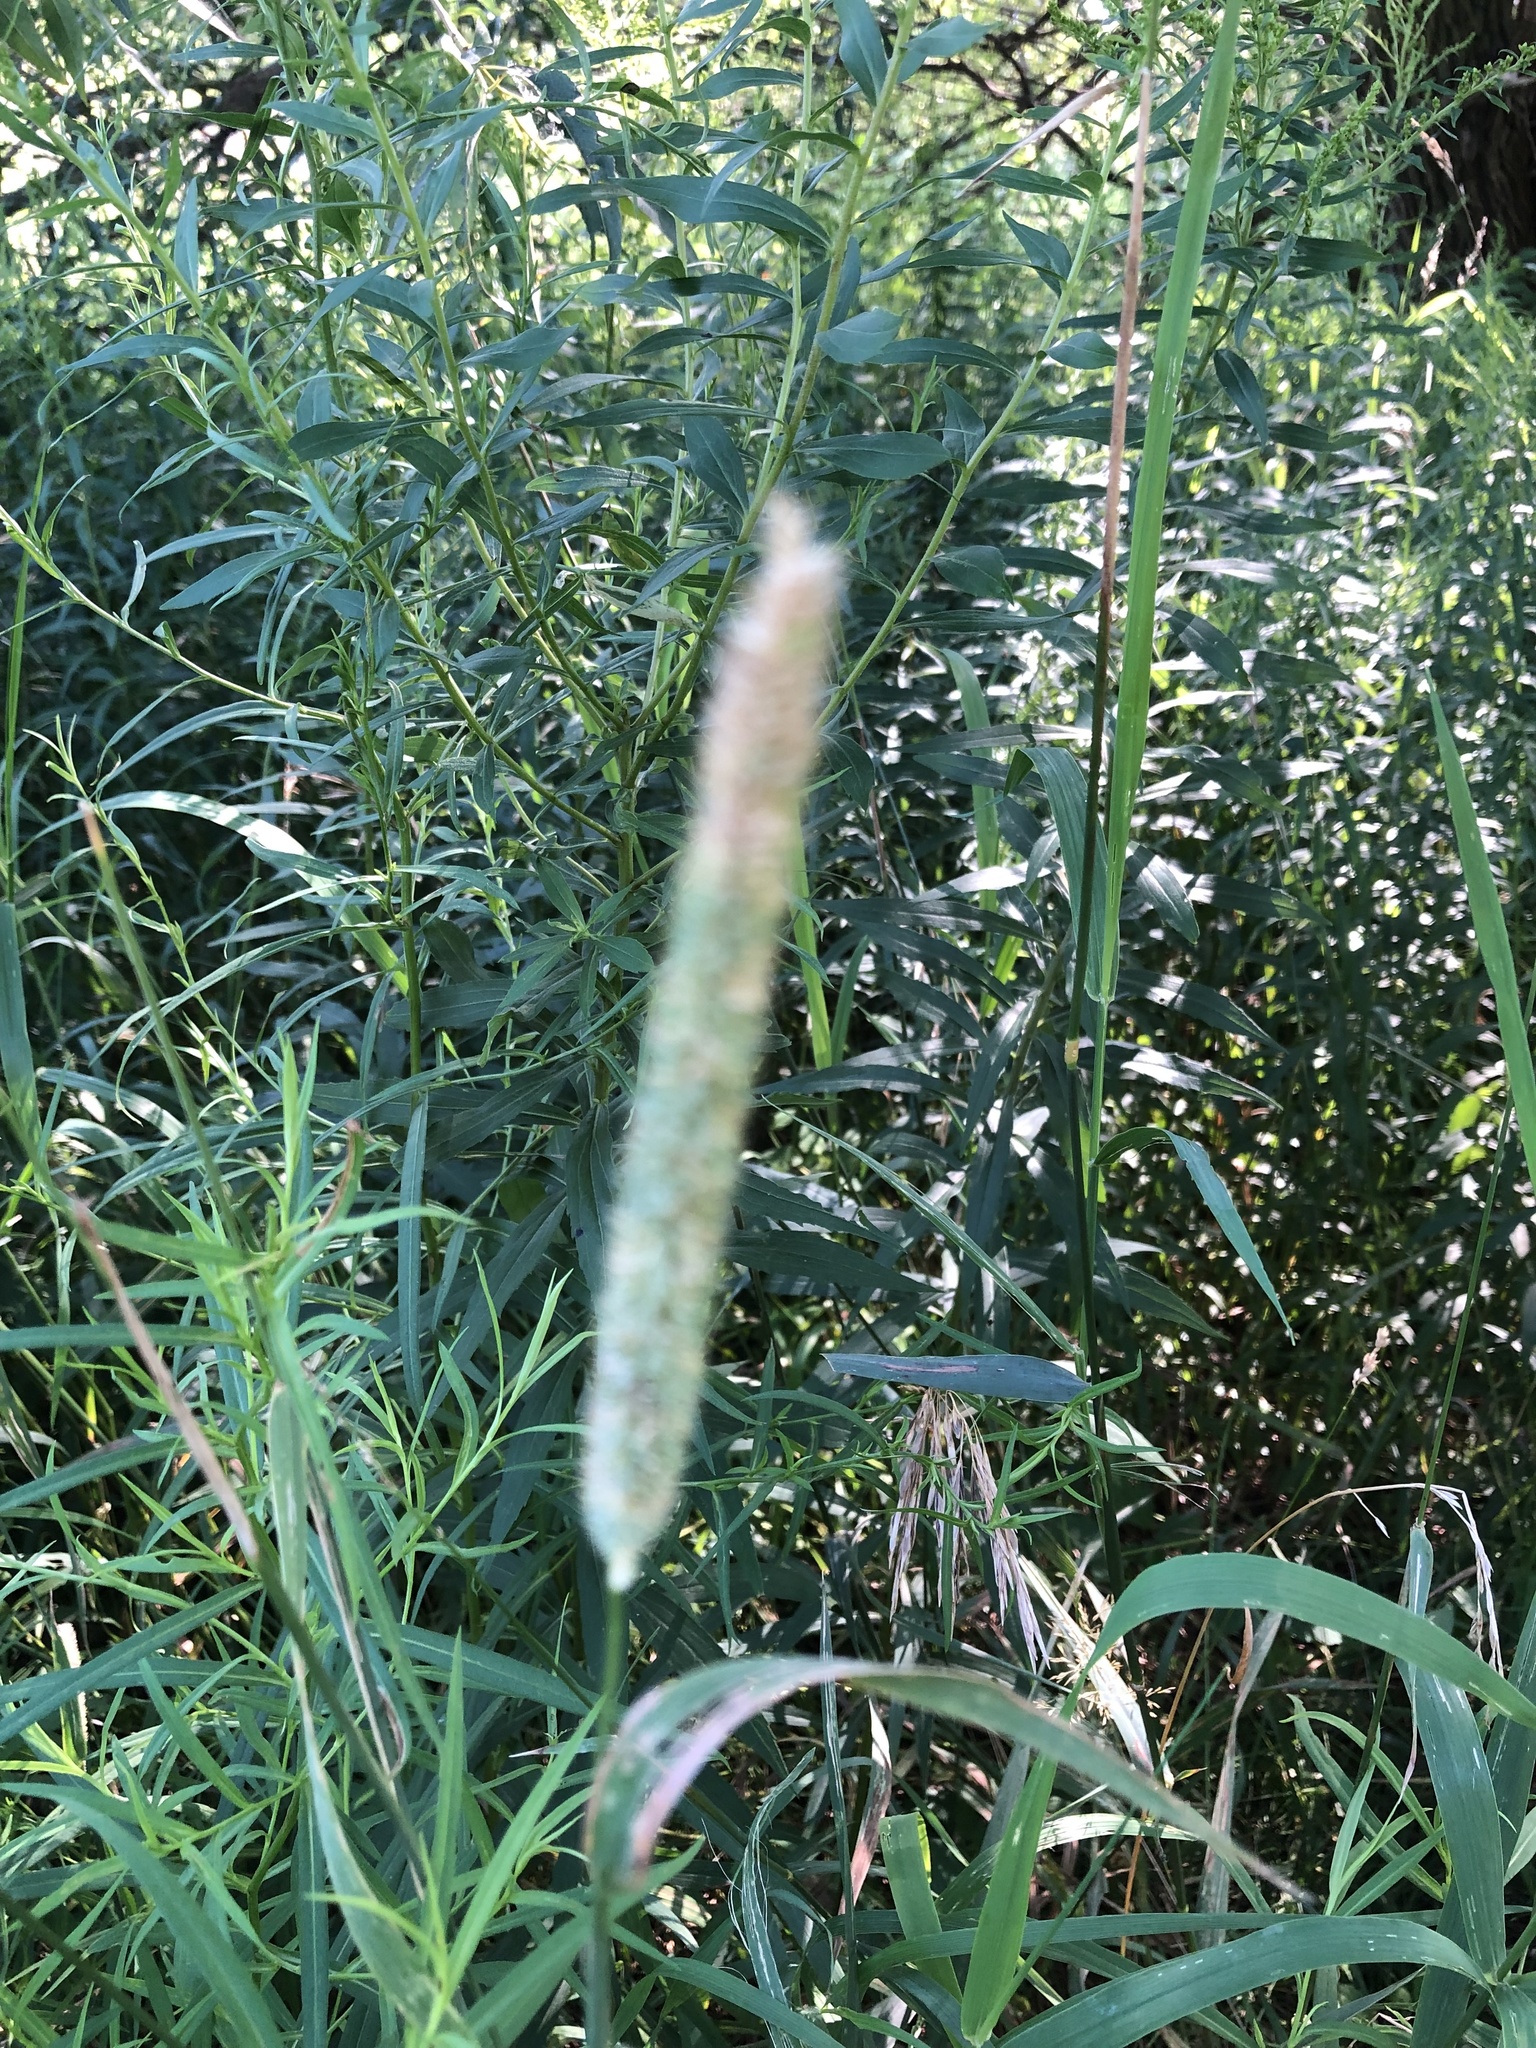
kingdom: Plantae
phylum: Tracheophyta
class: Liliopsida
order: Poales
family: Poaceae
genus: Phleum
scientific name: Phleum pratense
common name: Timothy grass
